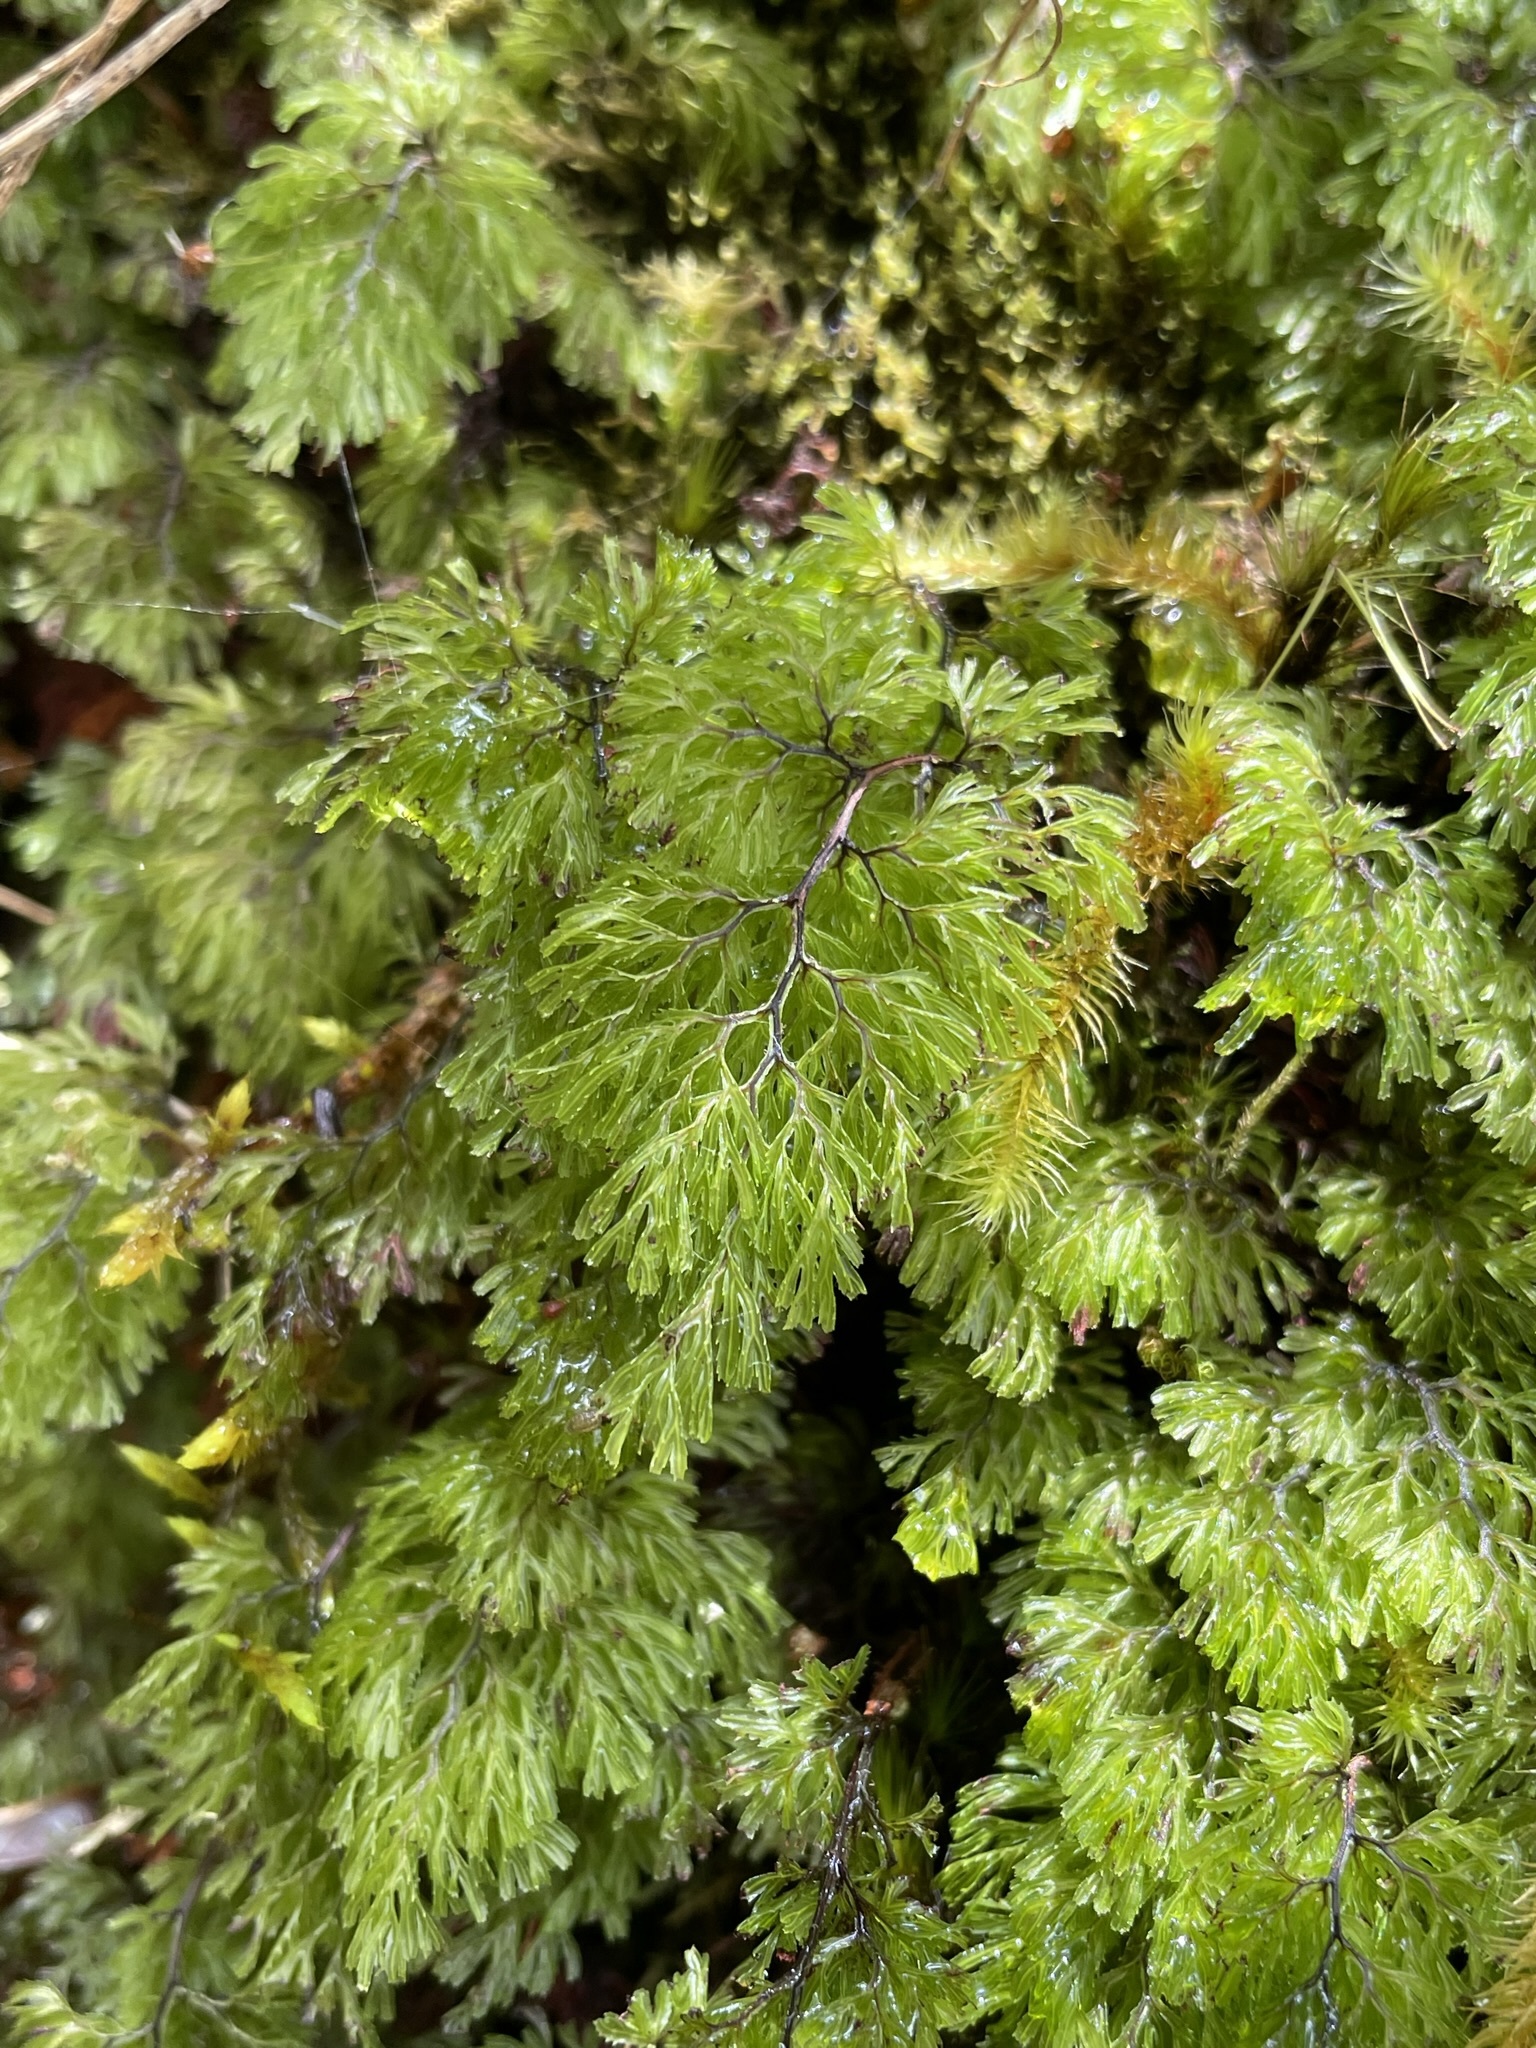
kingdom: Plantae
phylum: Tracheophyta
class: Polypodiopsida
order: Hymenophyllales
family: Hymenophyllaceae
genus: Hymenophyllum
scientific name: Hymenophyllum multifidum
